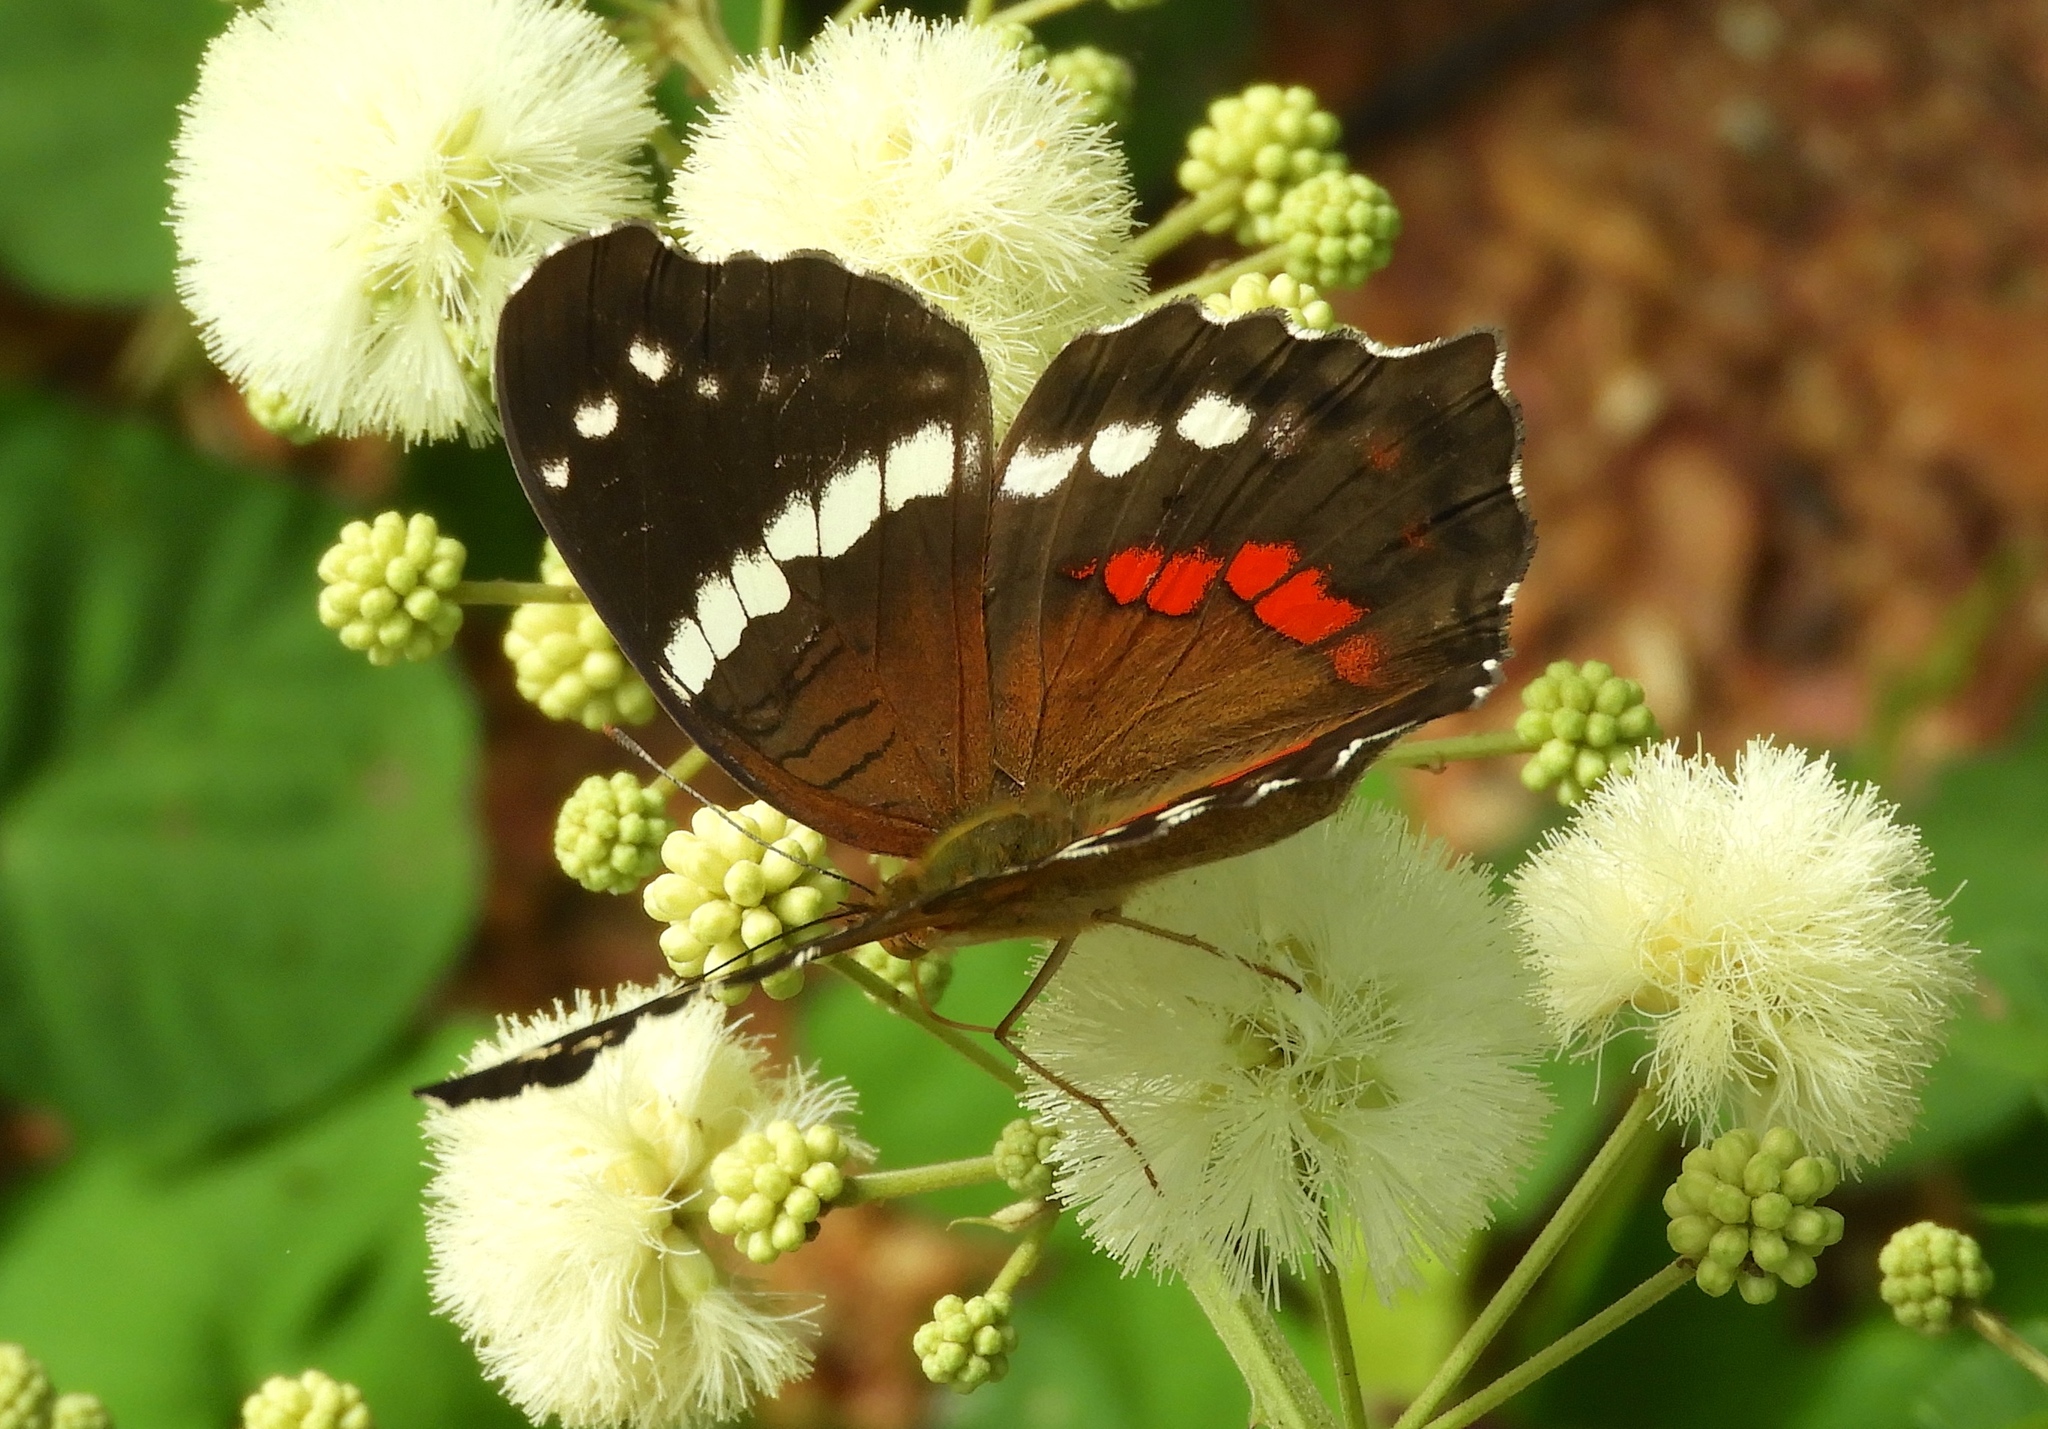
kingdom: Animalia
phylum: Arthropoda
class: Insecta
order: Lepidoptera
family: Nymphalidae
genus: Anartia
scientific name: Anartia fatima
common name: Banded peacock
